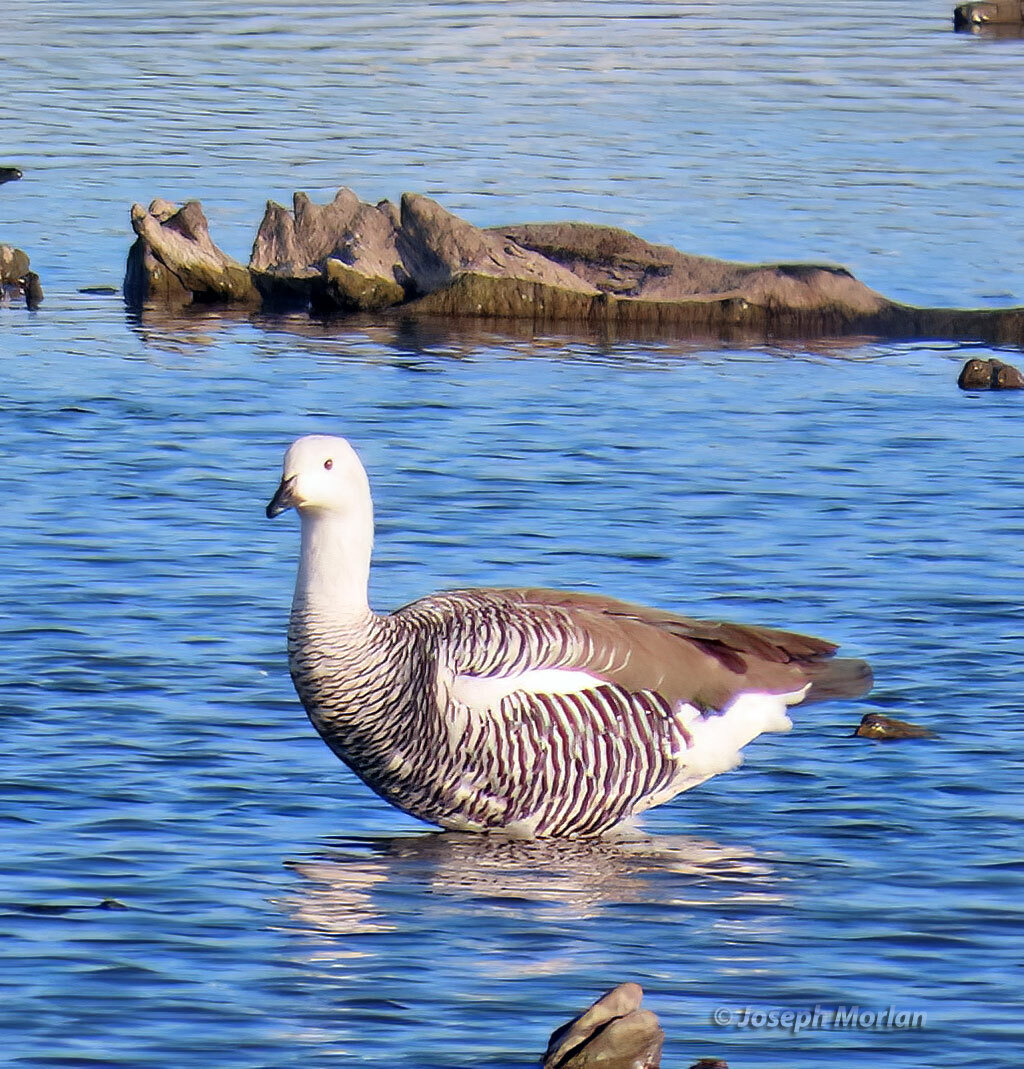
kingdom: Animalia
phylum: Chordata
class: Aves
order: Anseriformes
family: Anatidae
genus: Chloephaga
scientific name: Chloephaga picta
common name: Upland goose
